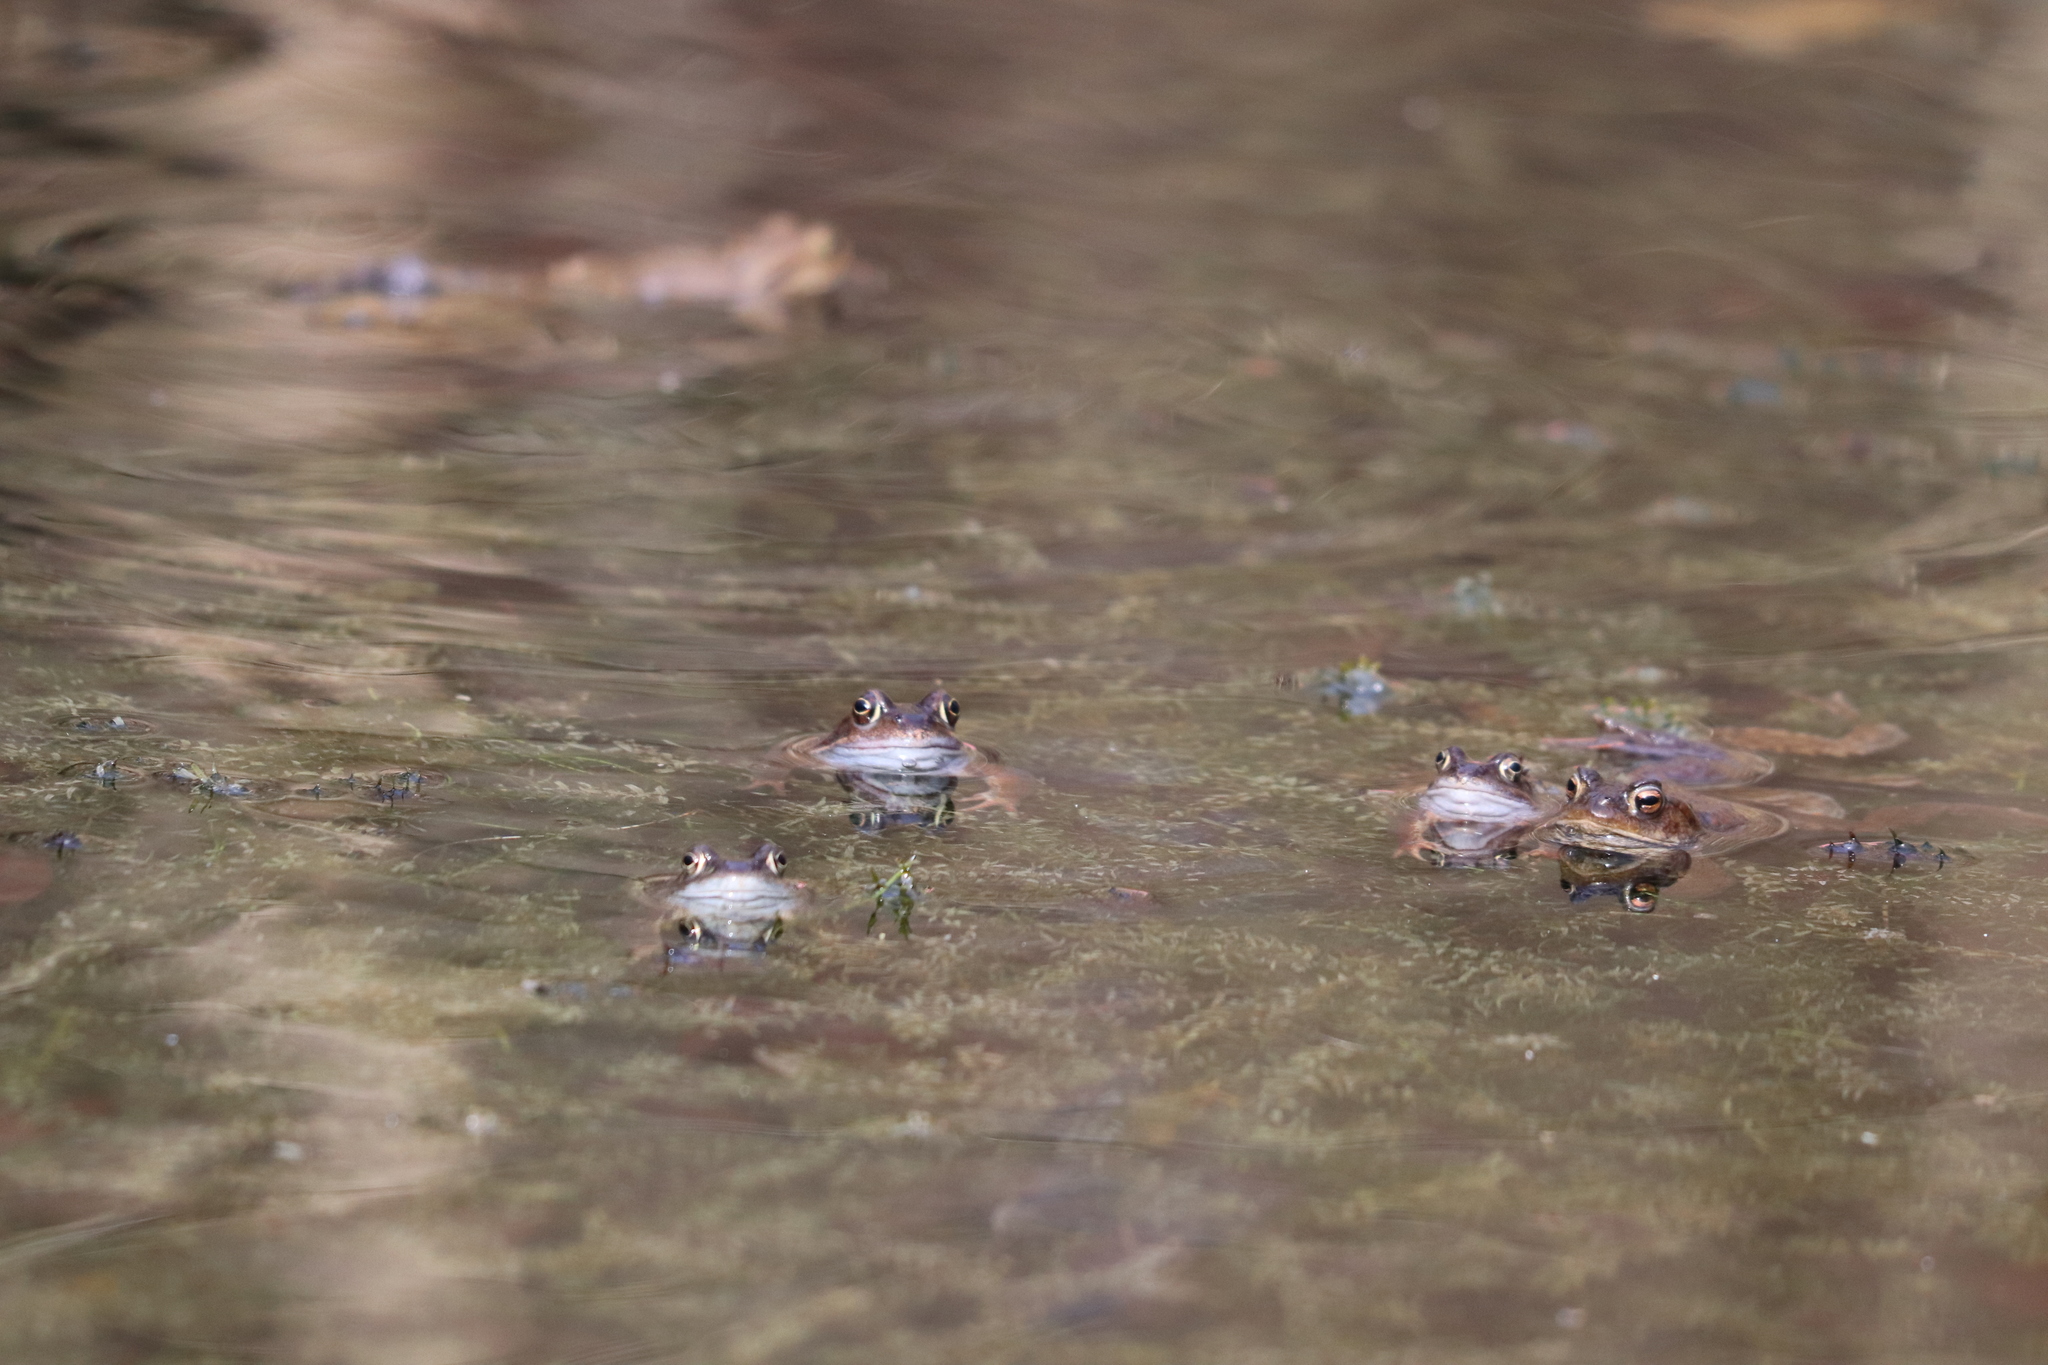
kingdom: Animalia
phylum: Chordata
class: Amphibia
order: Anura
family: Bufonidae
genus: Bufo
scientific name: Bufo bufo
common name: Common toad
